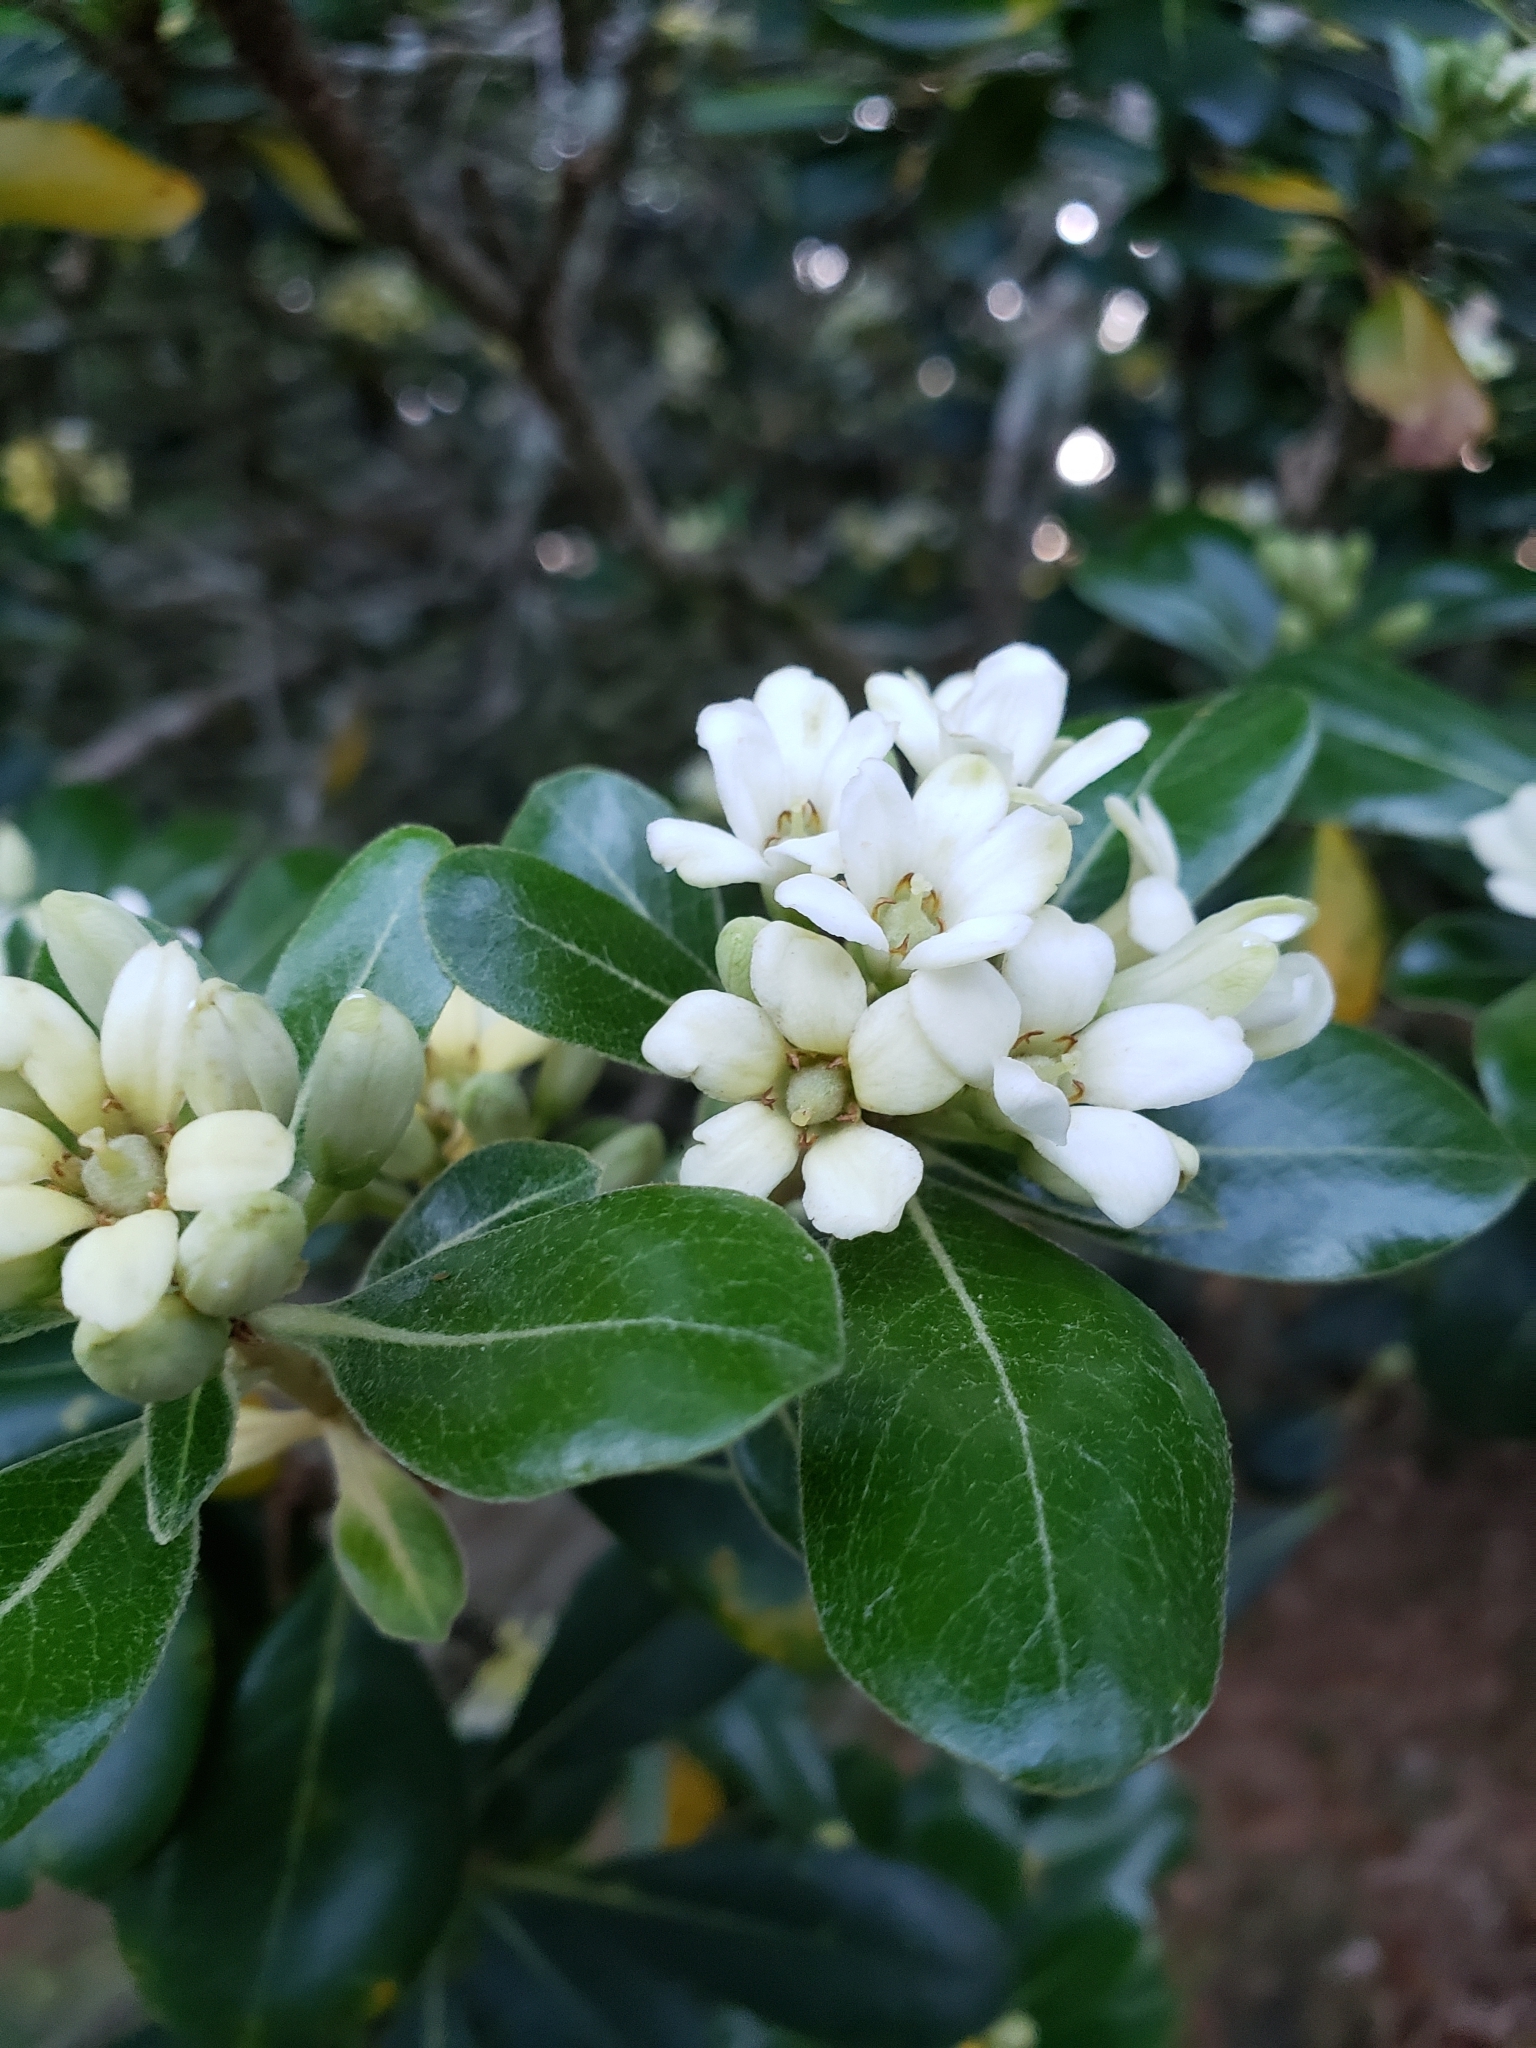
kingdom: Plantae
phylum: Tracheophyta
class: Magnoliopsida
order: Apiales
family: Pittosporaceae
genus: Pittosporum
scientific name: Pittosporum tobira
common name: Japanese cheesewood
